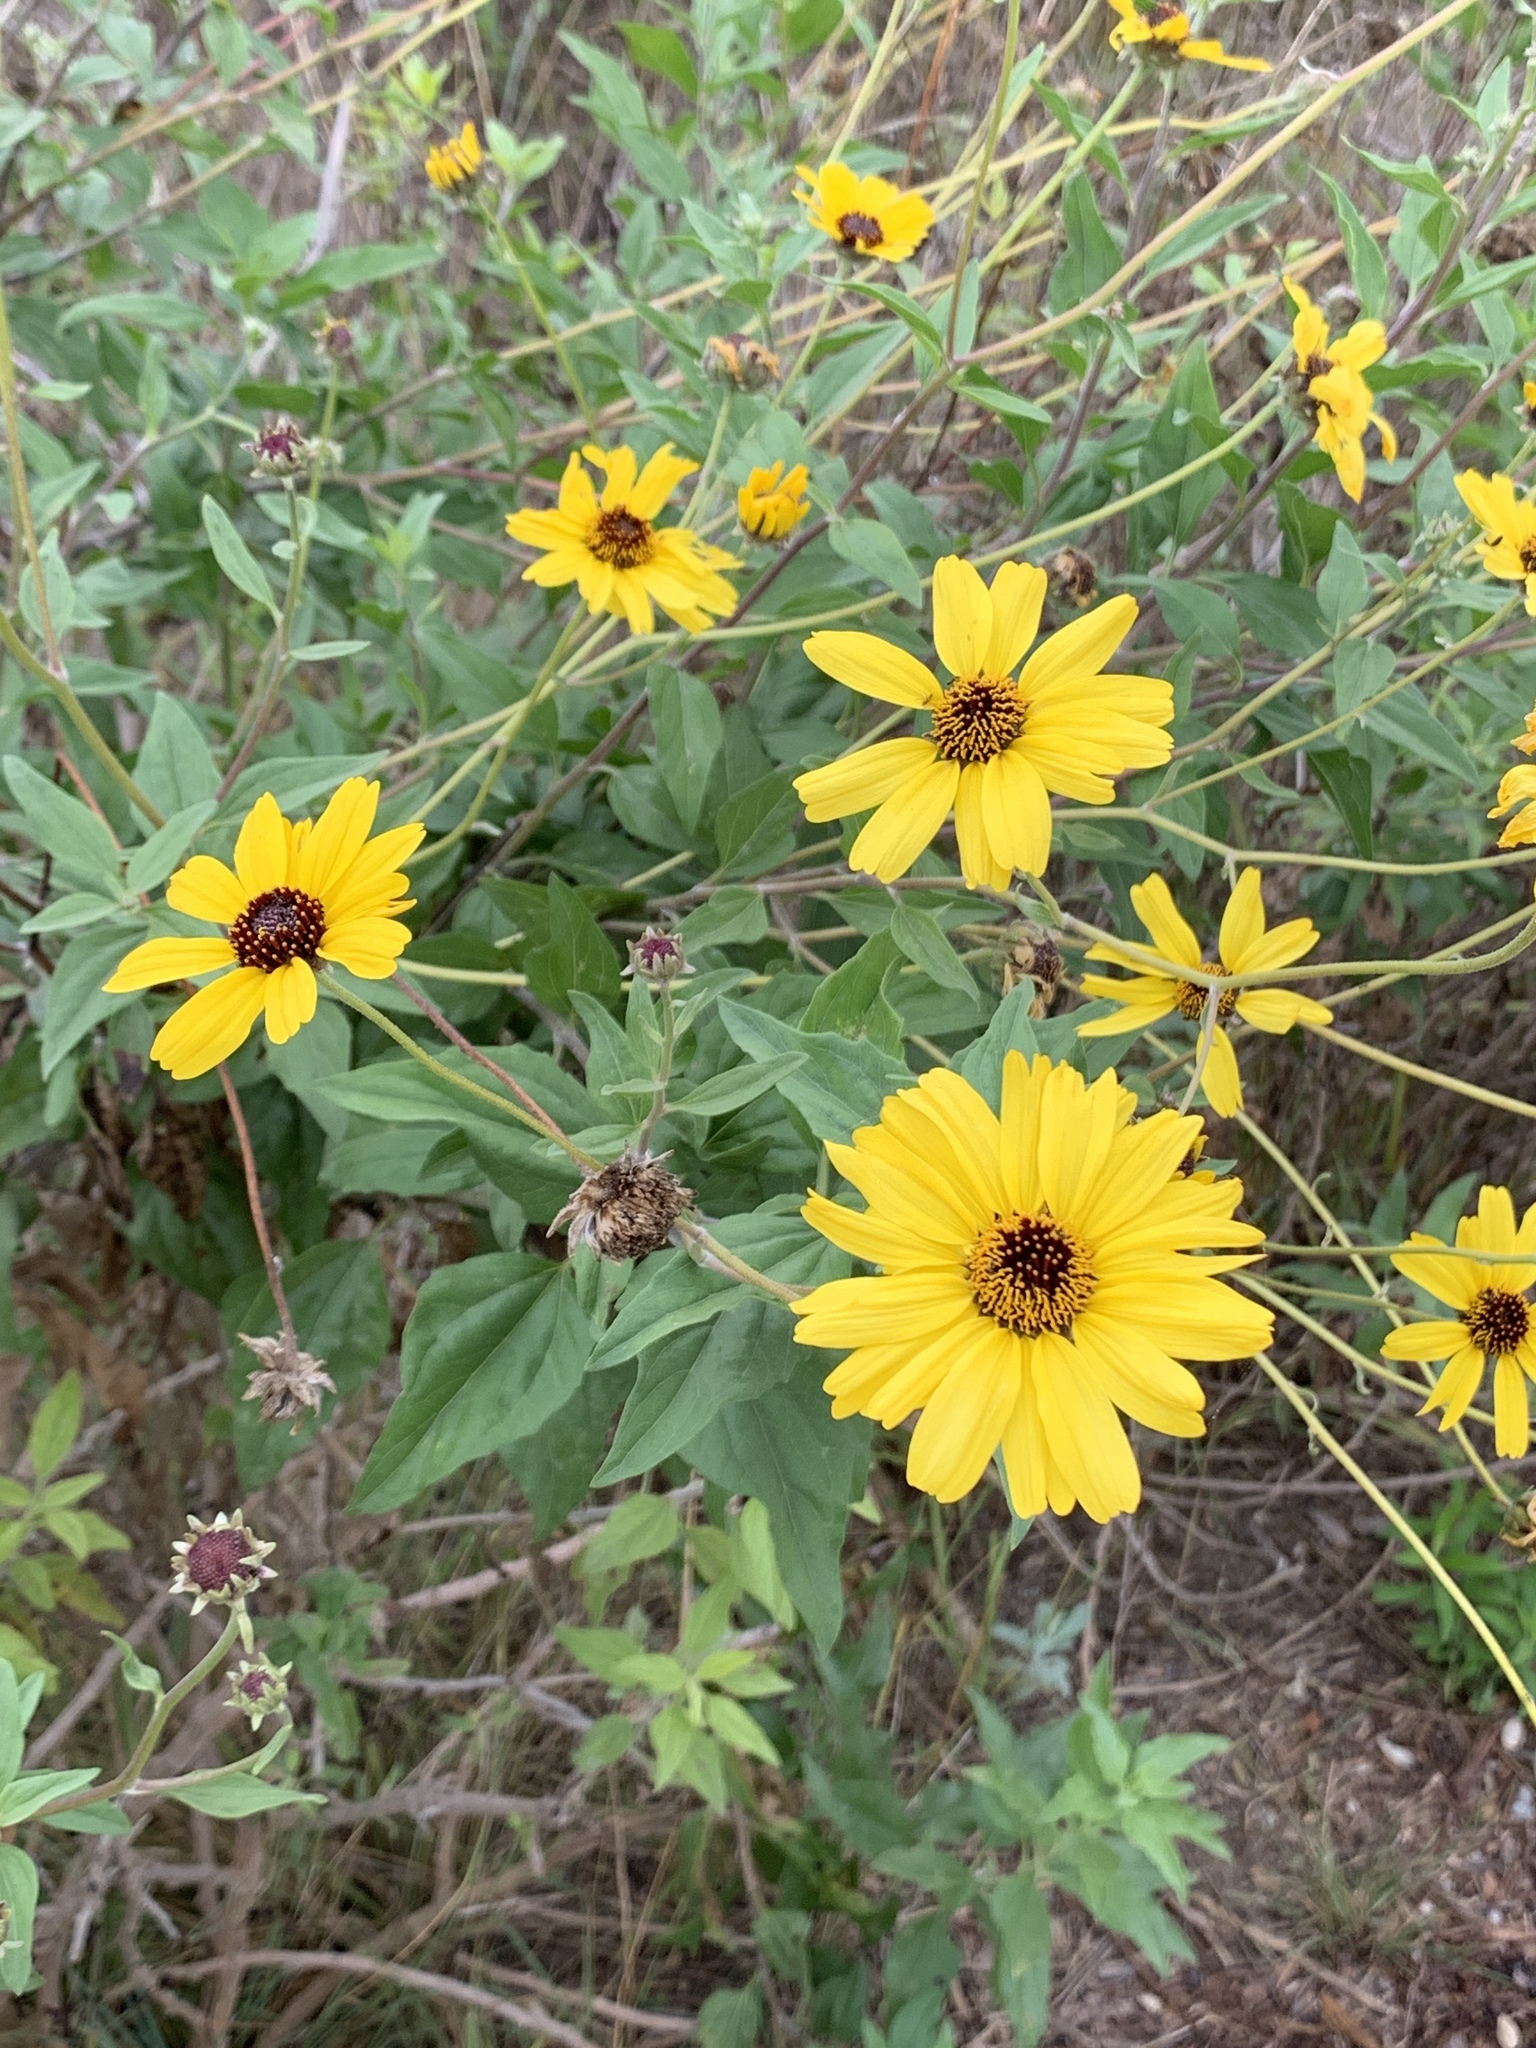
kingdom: Plantae
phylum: Tracheophyta
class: Magnoliopsida
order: Asterales
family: Asteraceae
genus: Encelia
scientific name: Encelia californica
